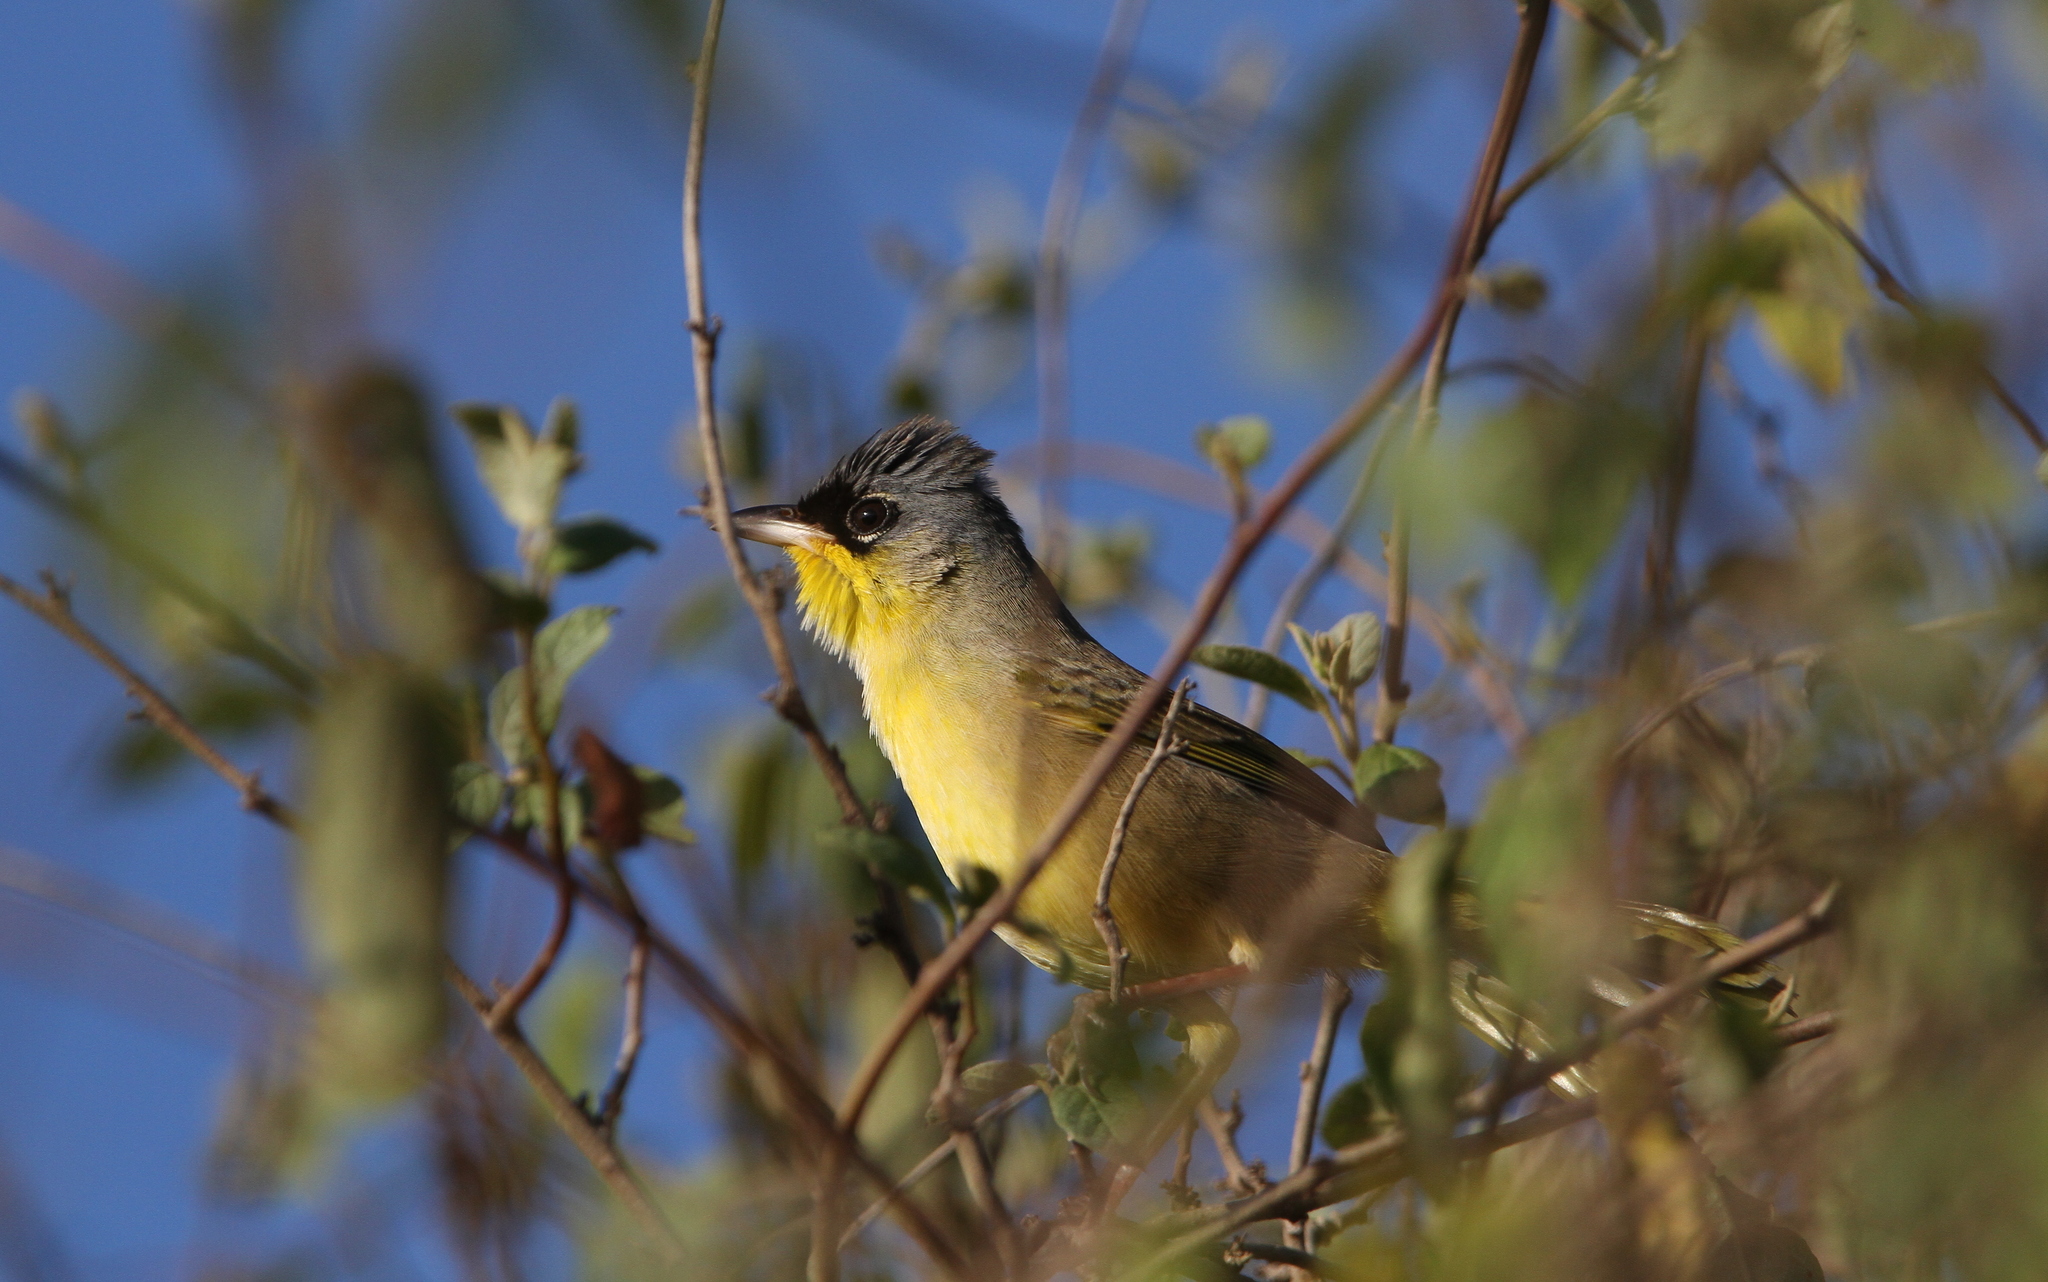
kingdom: Animalia
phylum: Chordata
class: Aves
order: Passeriformes
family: Parulidae
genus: Geothlypis
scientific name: Geothlypis poliocephala
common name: Gray-crowned yellowthroat
